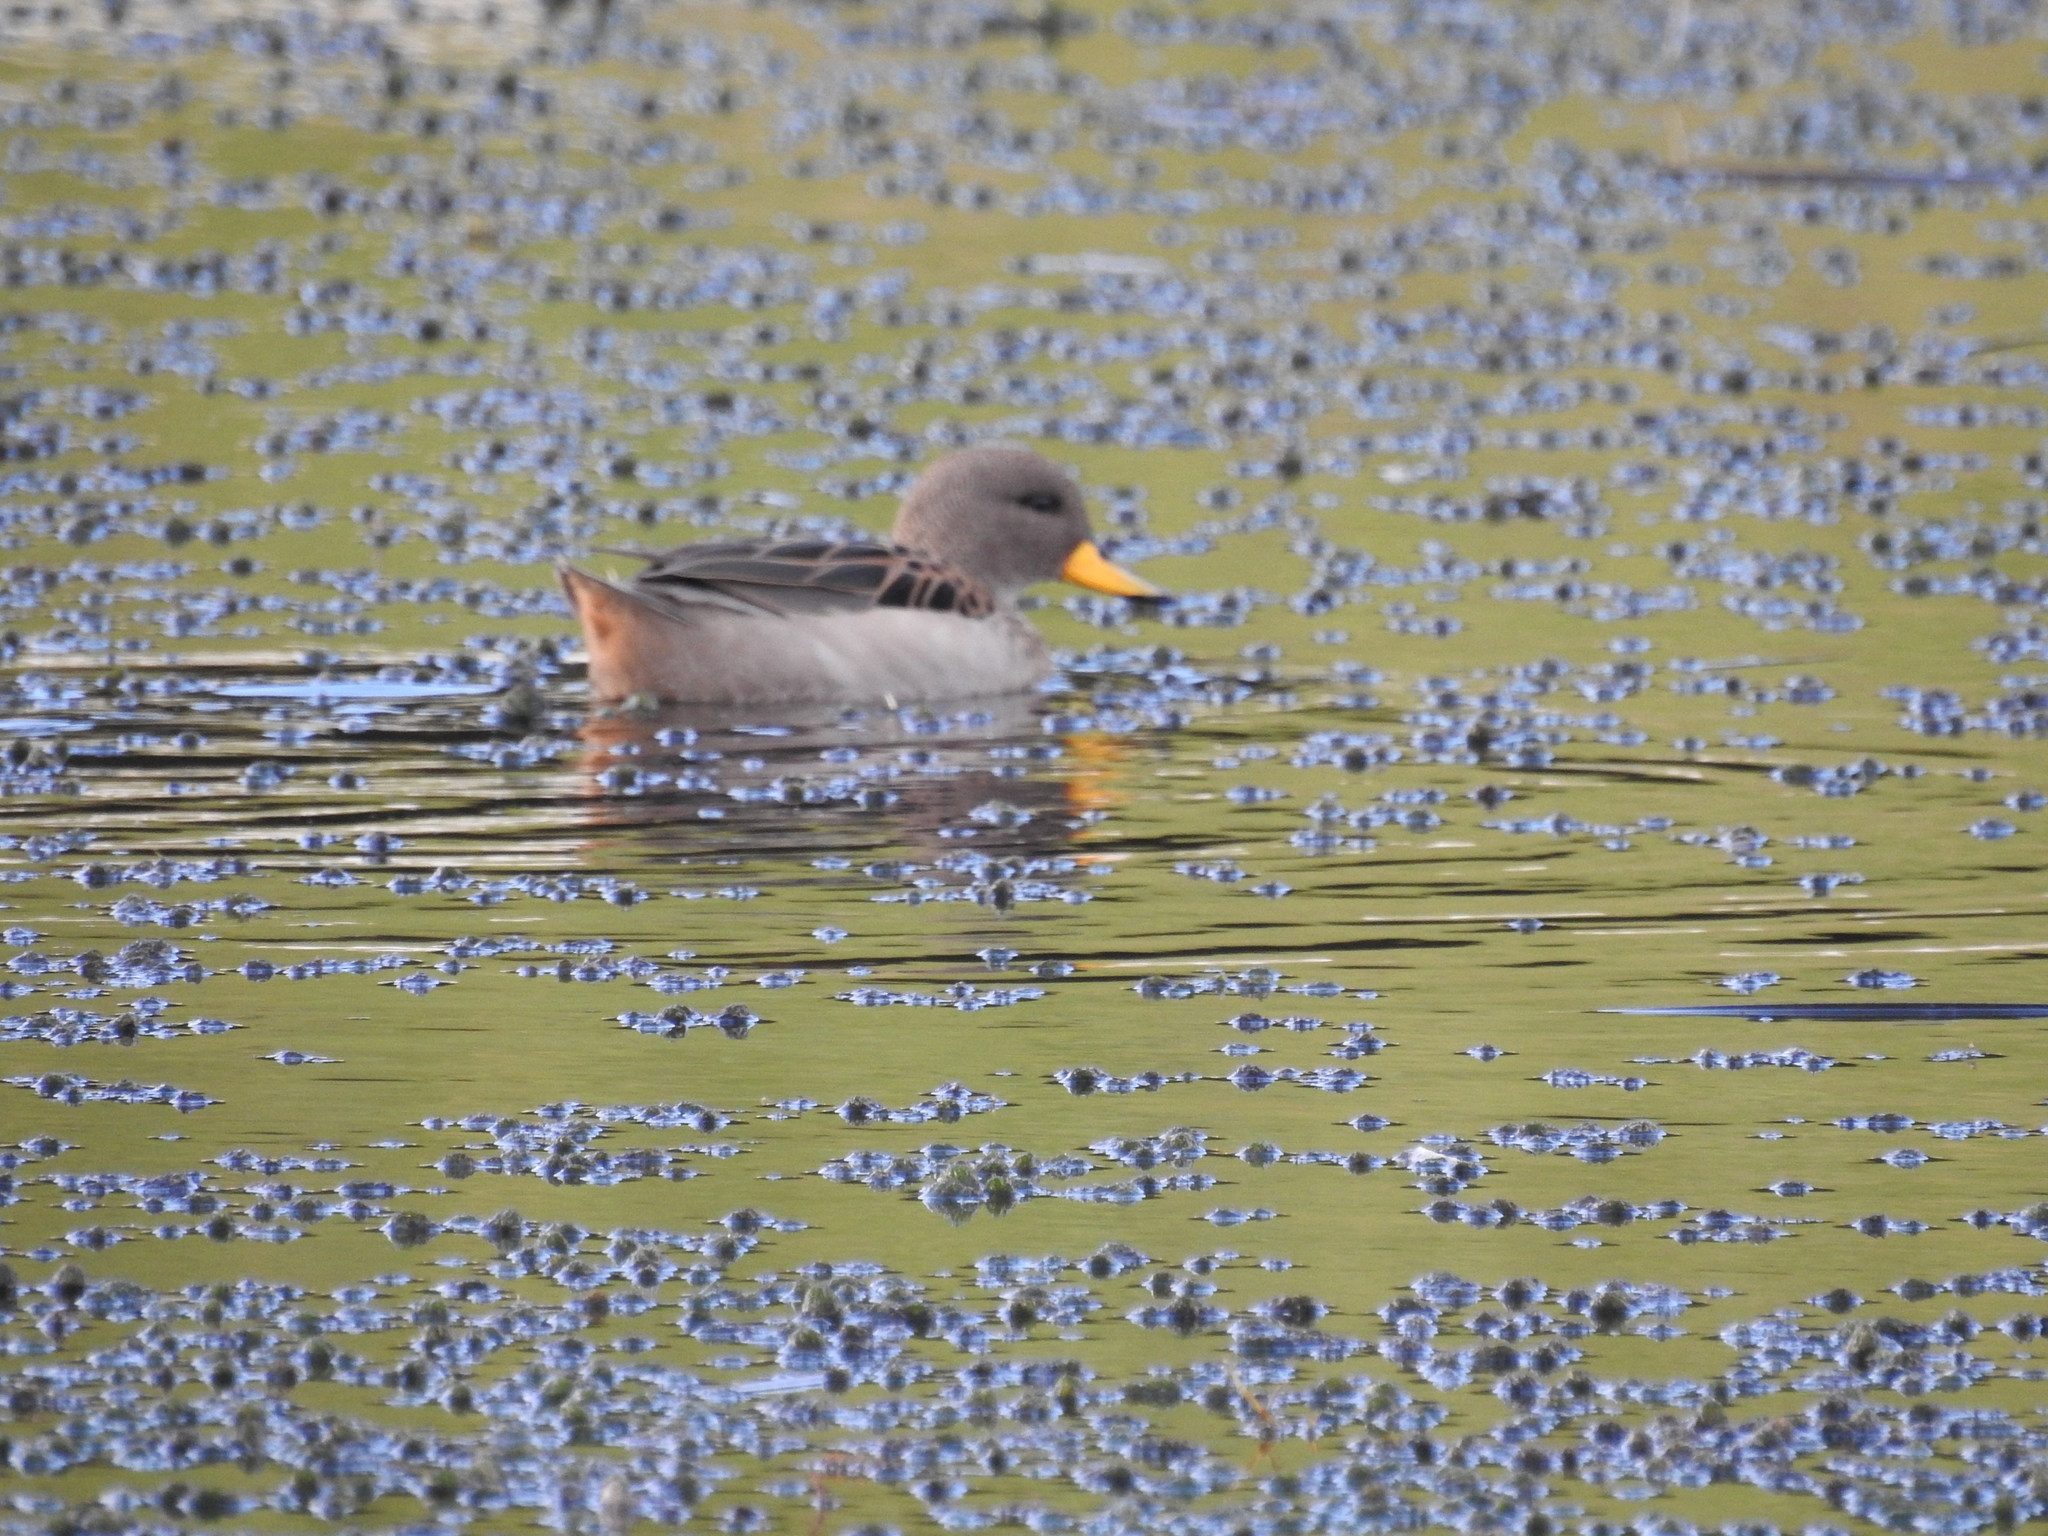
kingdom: Animalia
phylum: Chordata
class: Aves
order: Anseriformes
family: Anatidae
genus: Anas
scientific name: Anas flavirostris
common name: Yellow-billed teal
